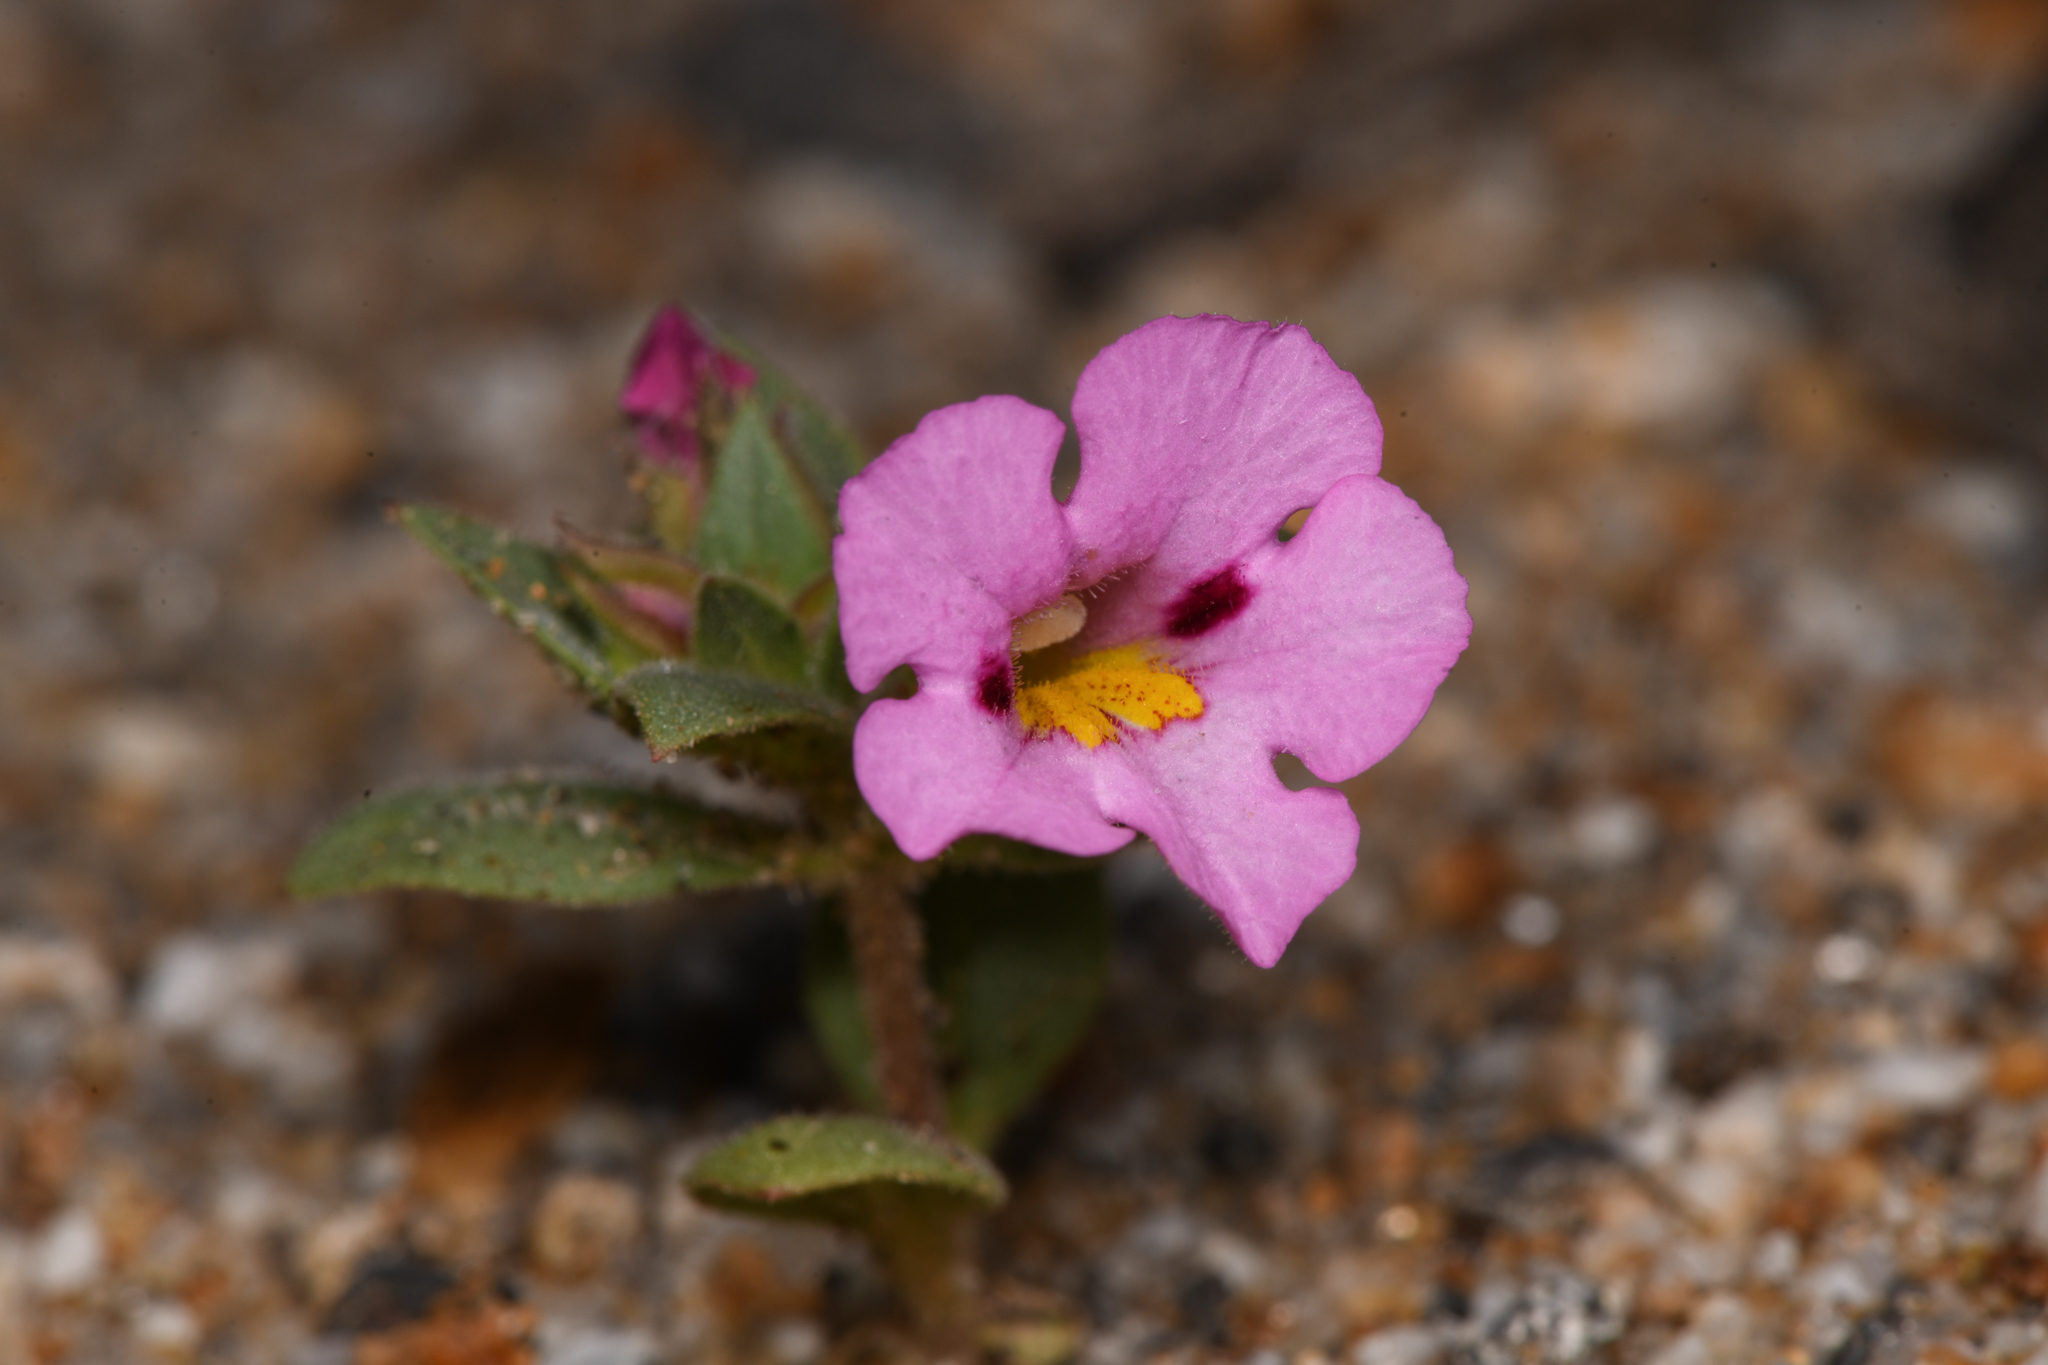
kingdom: Plantae
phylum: Tracheophyta
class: Magnoliopsida
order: Lamiales
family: Phrymaceae
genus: Diplacus
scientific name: Diplacus bigelovii
